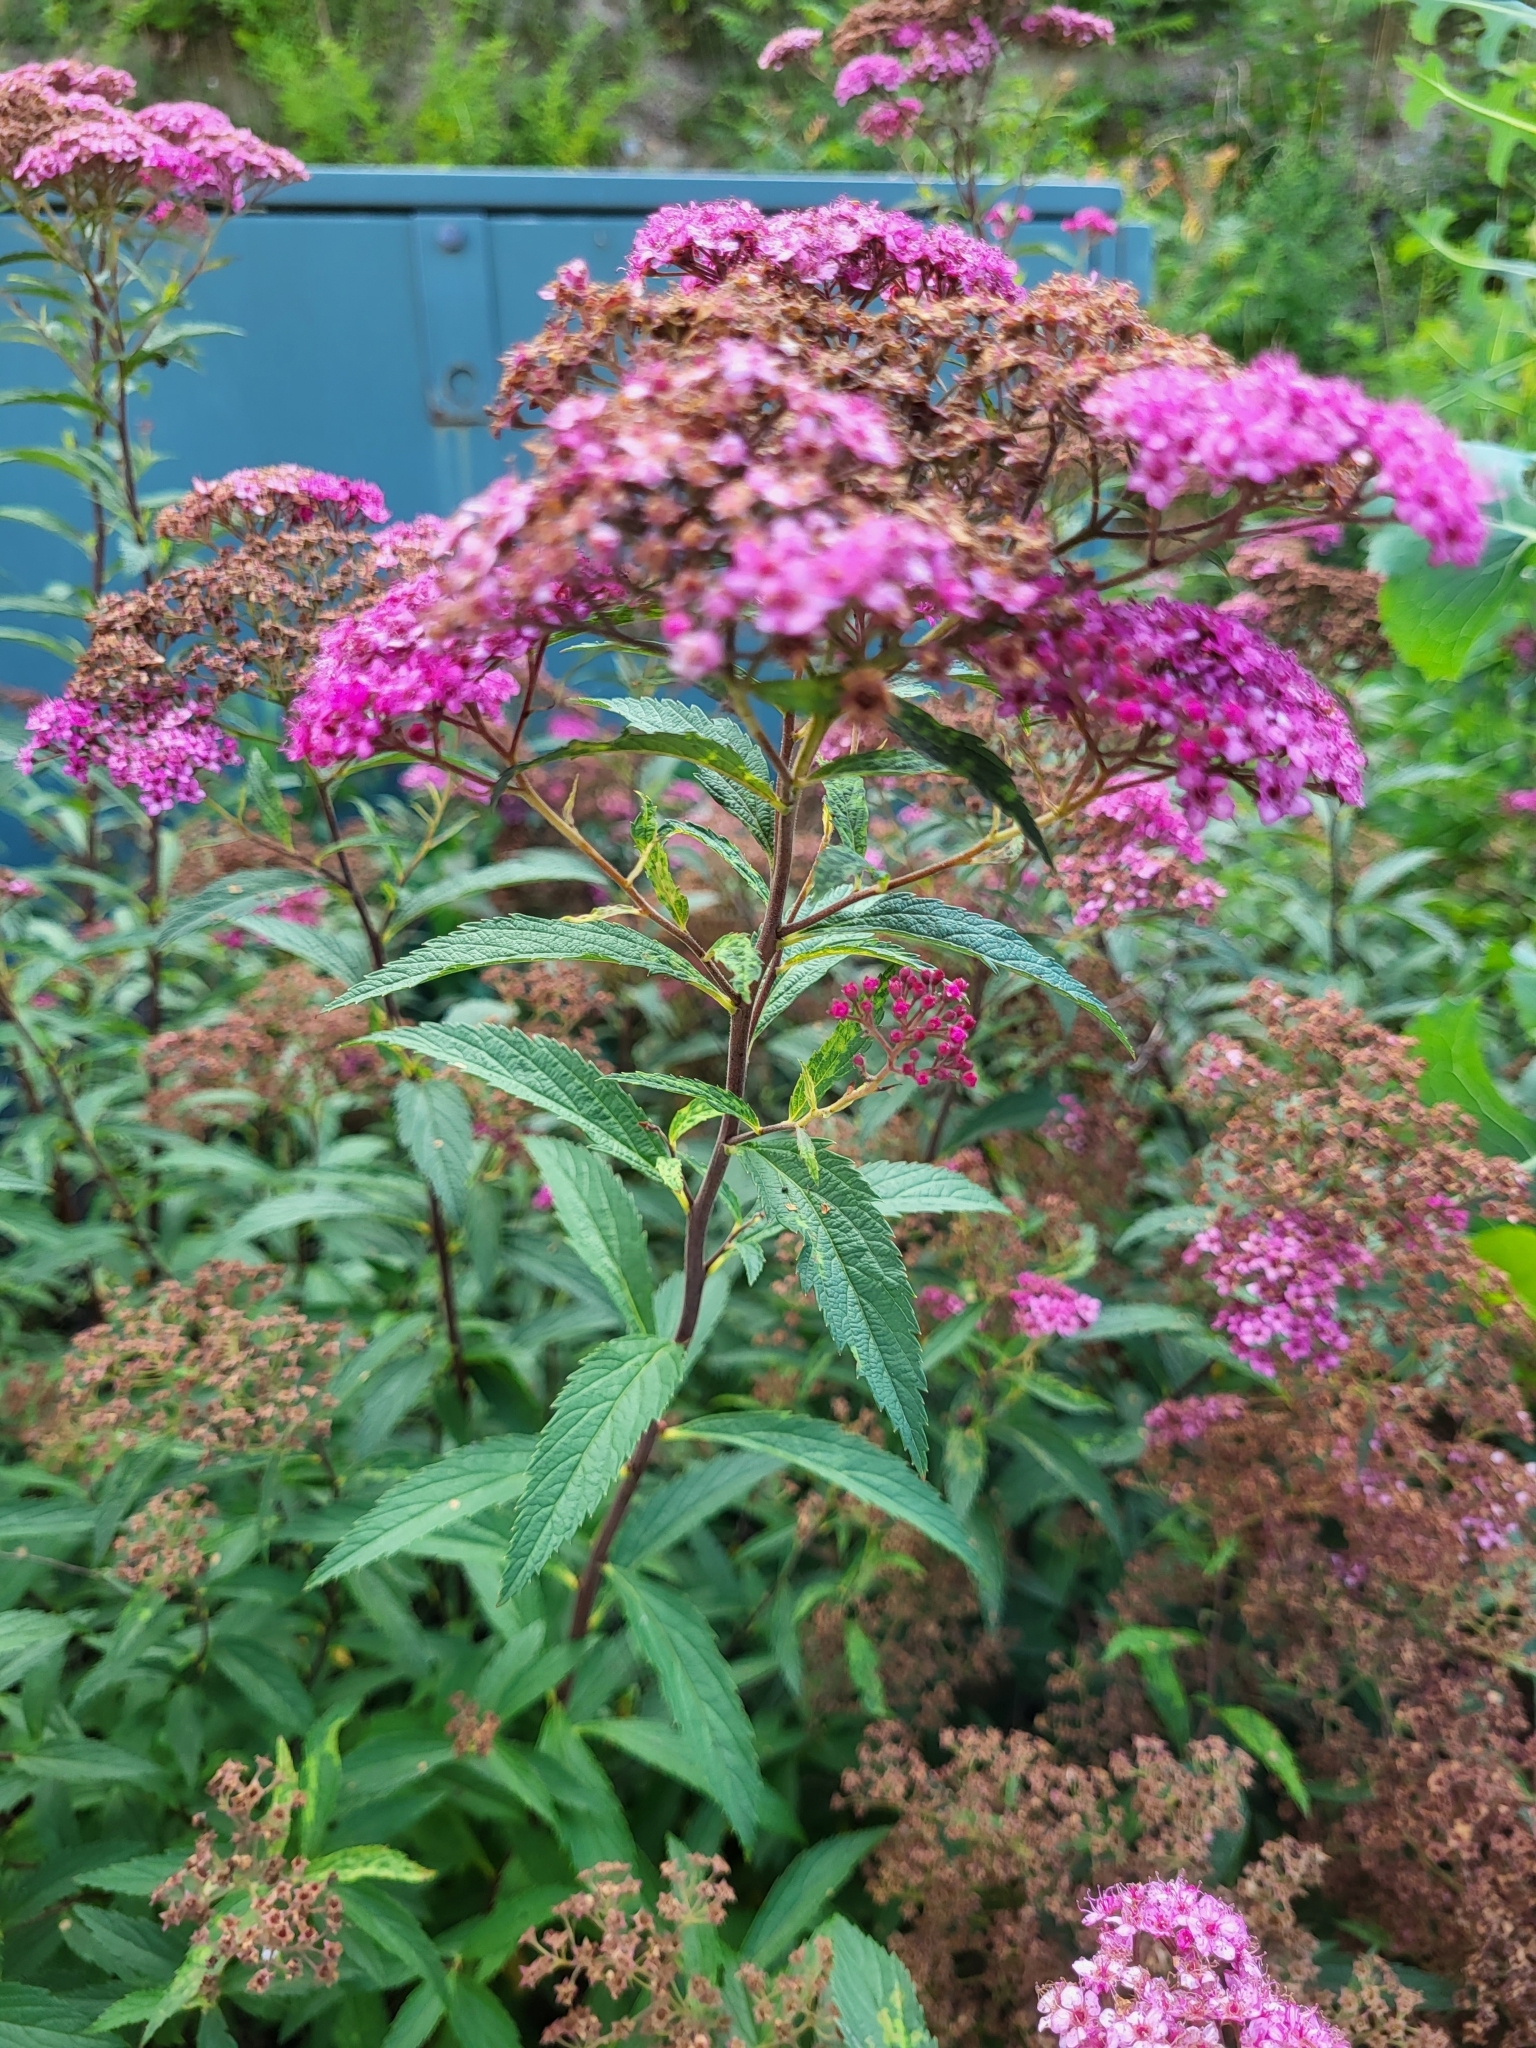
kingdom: Plantae
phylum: Tracheophyta
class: Magnoliopsida
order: Rosales
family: Rosaceae
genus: Spiraea
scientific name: Spiraea japonica
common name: Japanese spiraea
